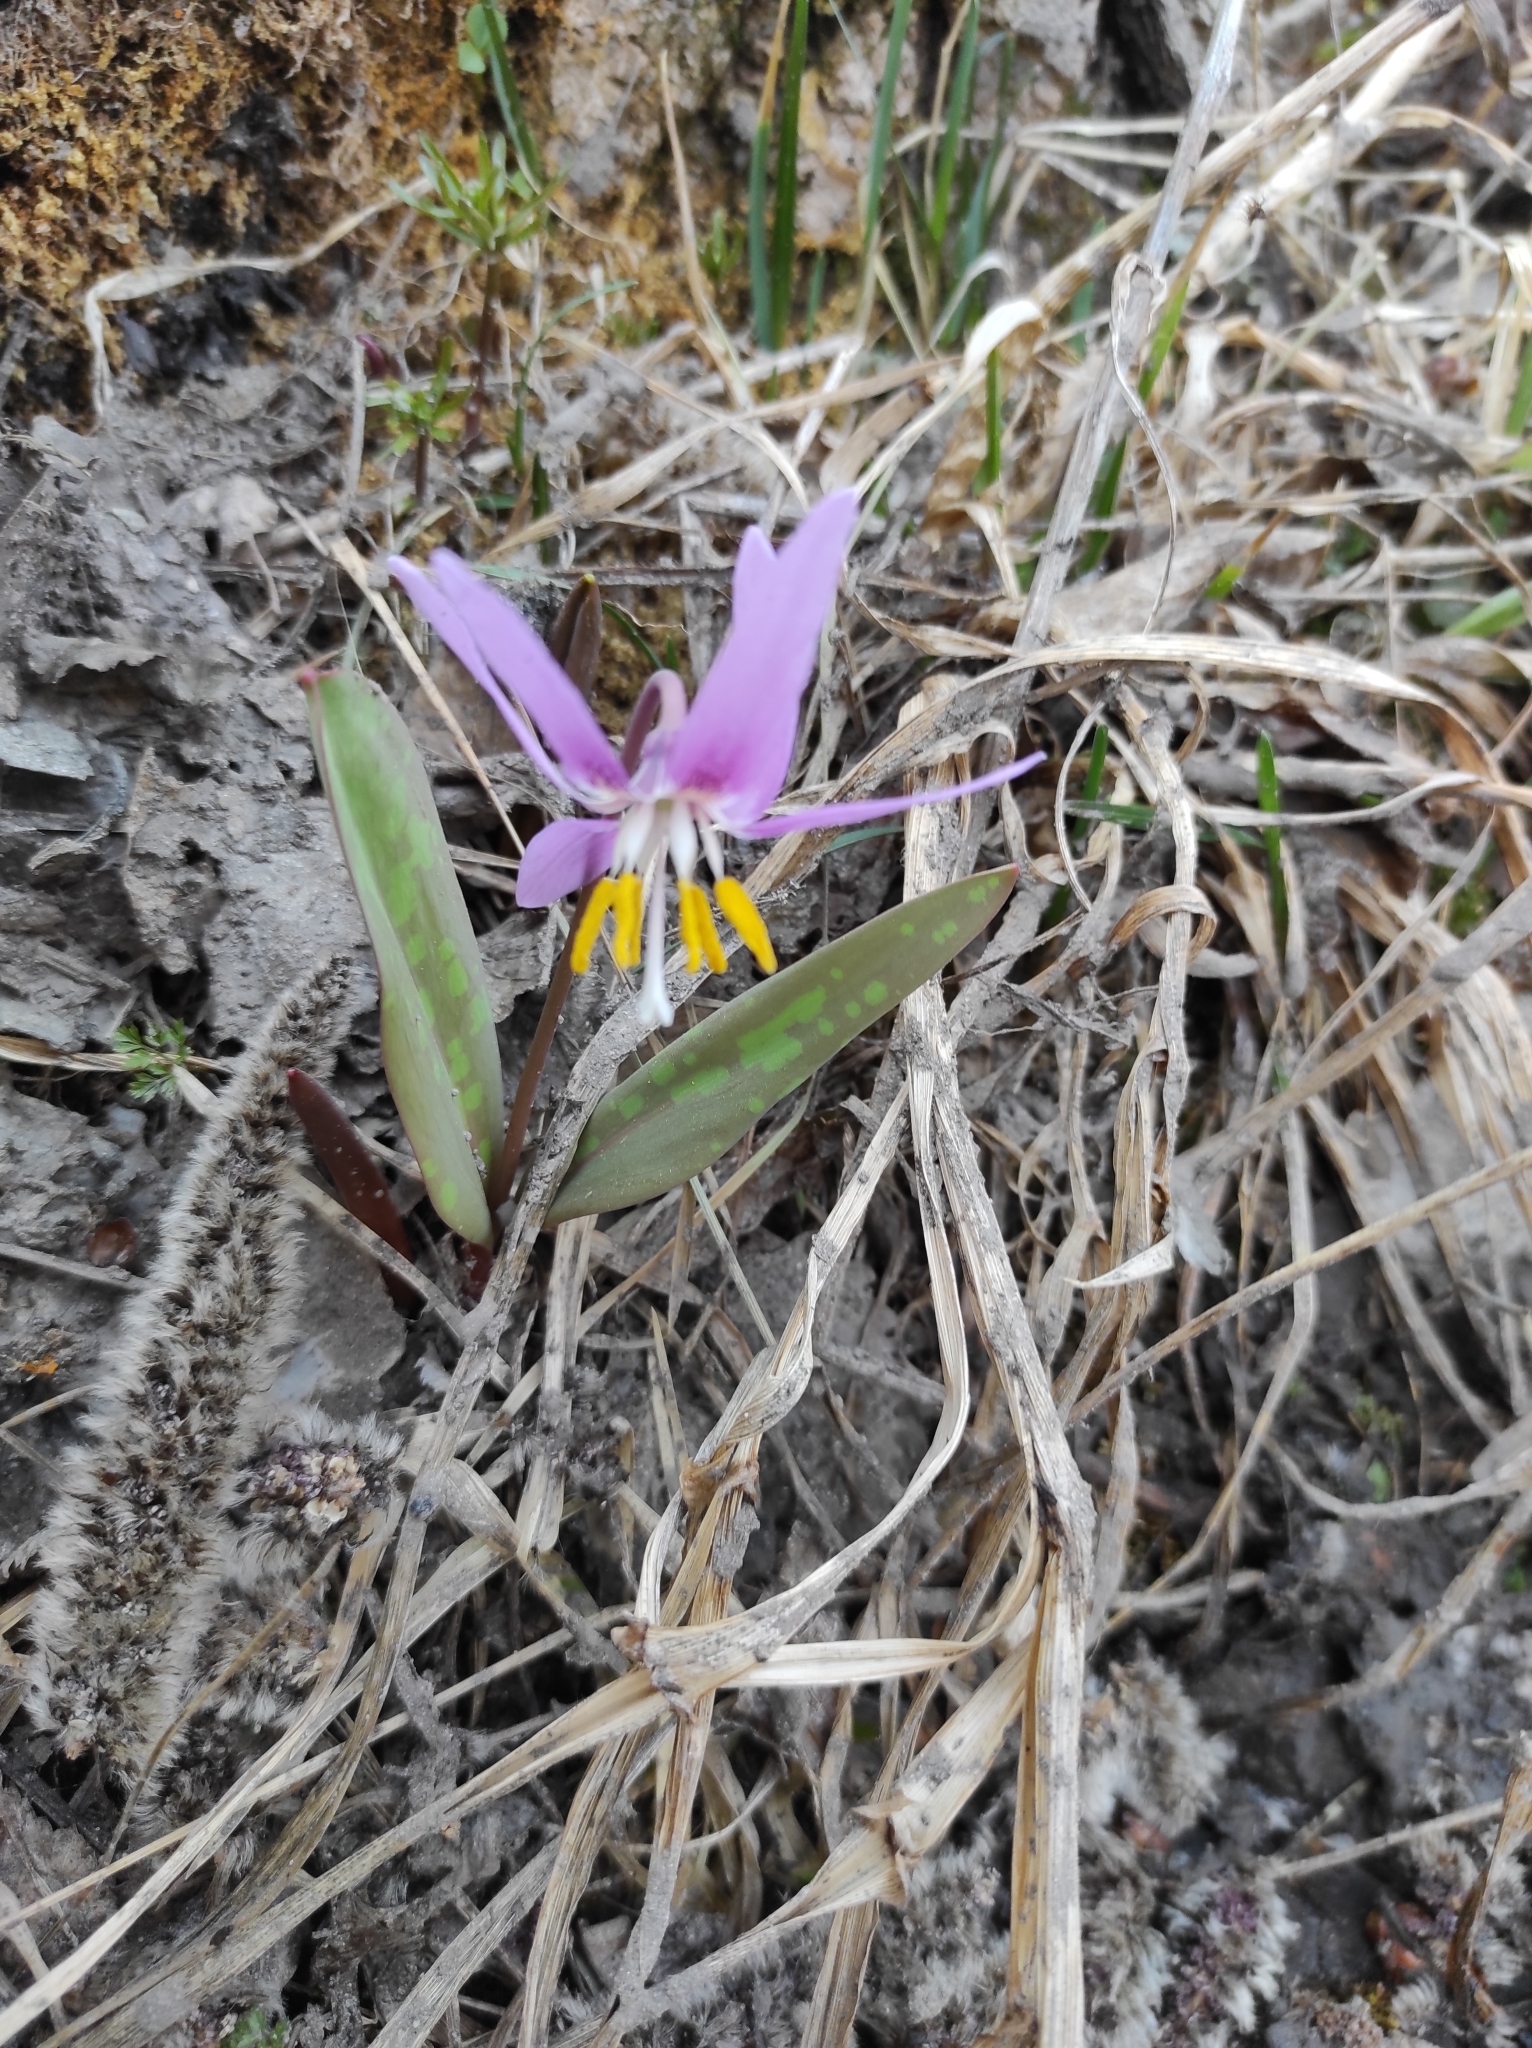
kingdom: Plantae
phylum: Tracheophyta
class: Liliopsida
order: Liliales
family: Liliaceae
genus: Erythronium
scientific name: Erythronium sibiricum
